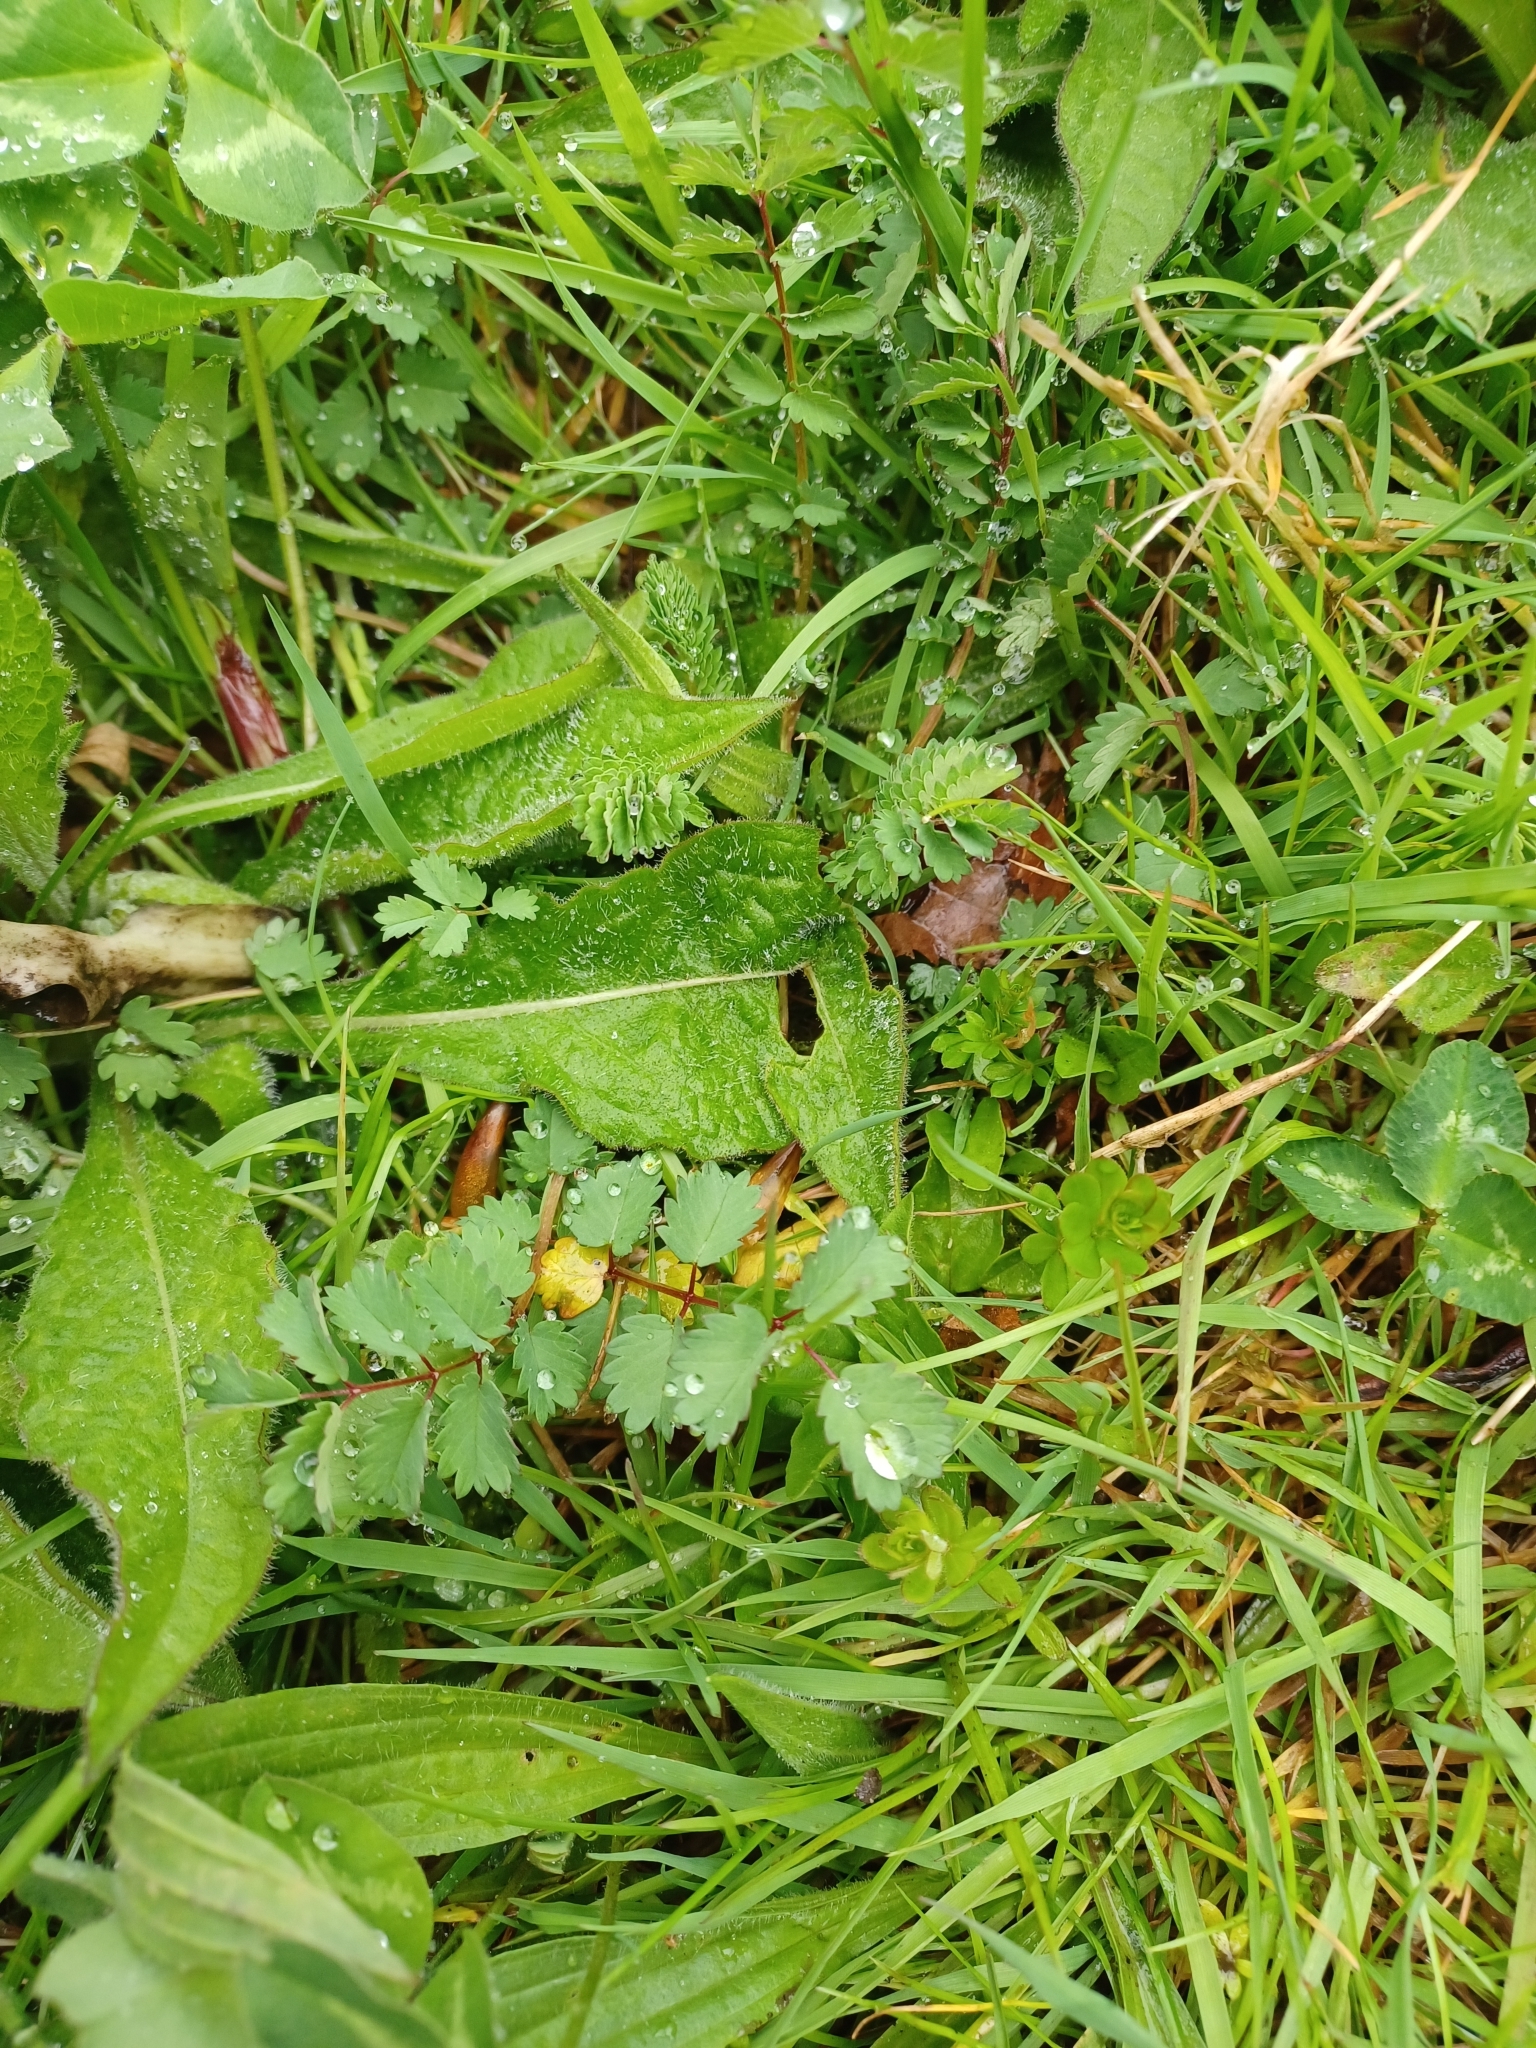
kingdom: Plantae
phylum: Tracheophyta
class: Magnoliopsida
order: Rosales
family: Rosaceae
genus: Poterium
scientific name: Poterium sanguisorba
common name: Salad burnet
